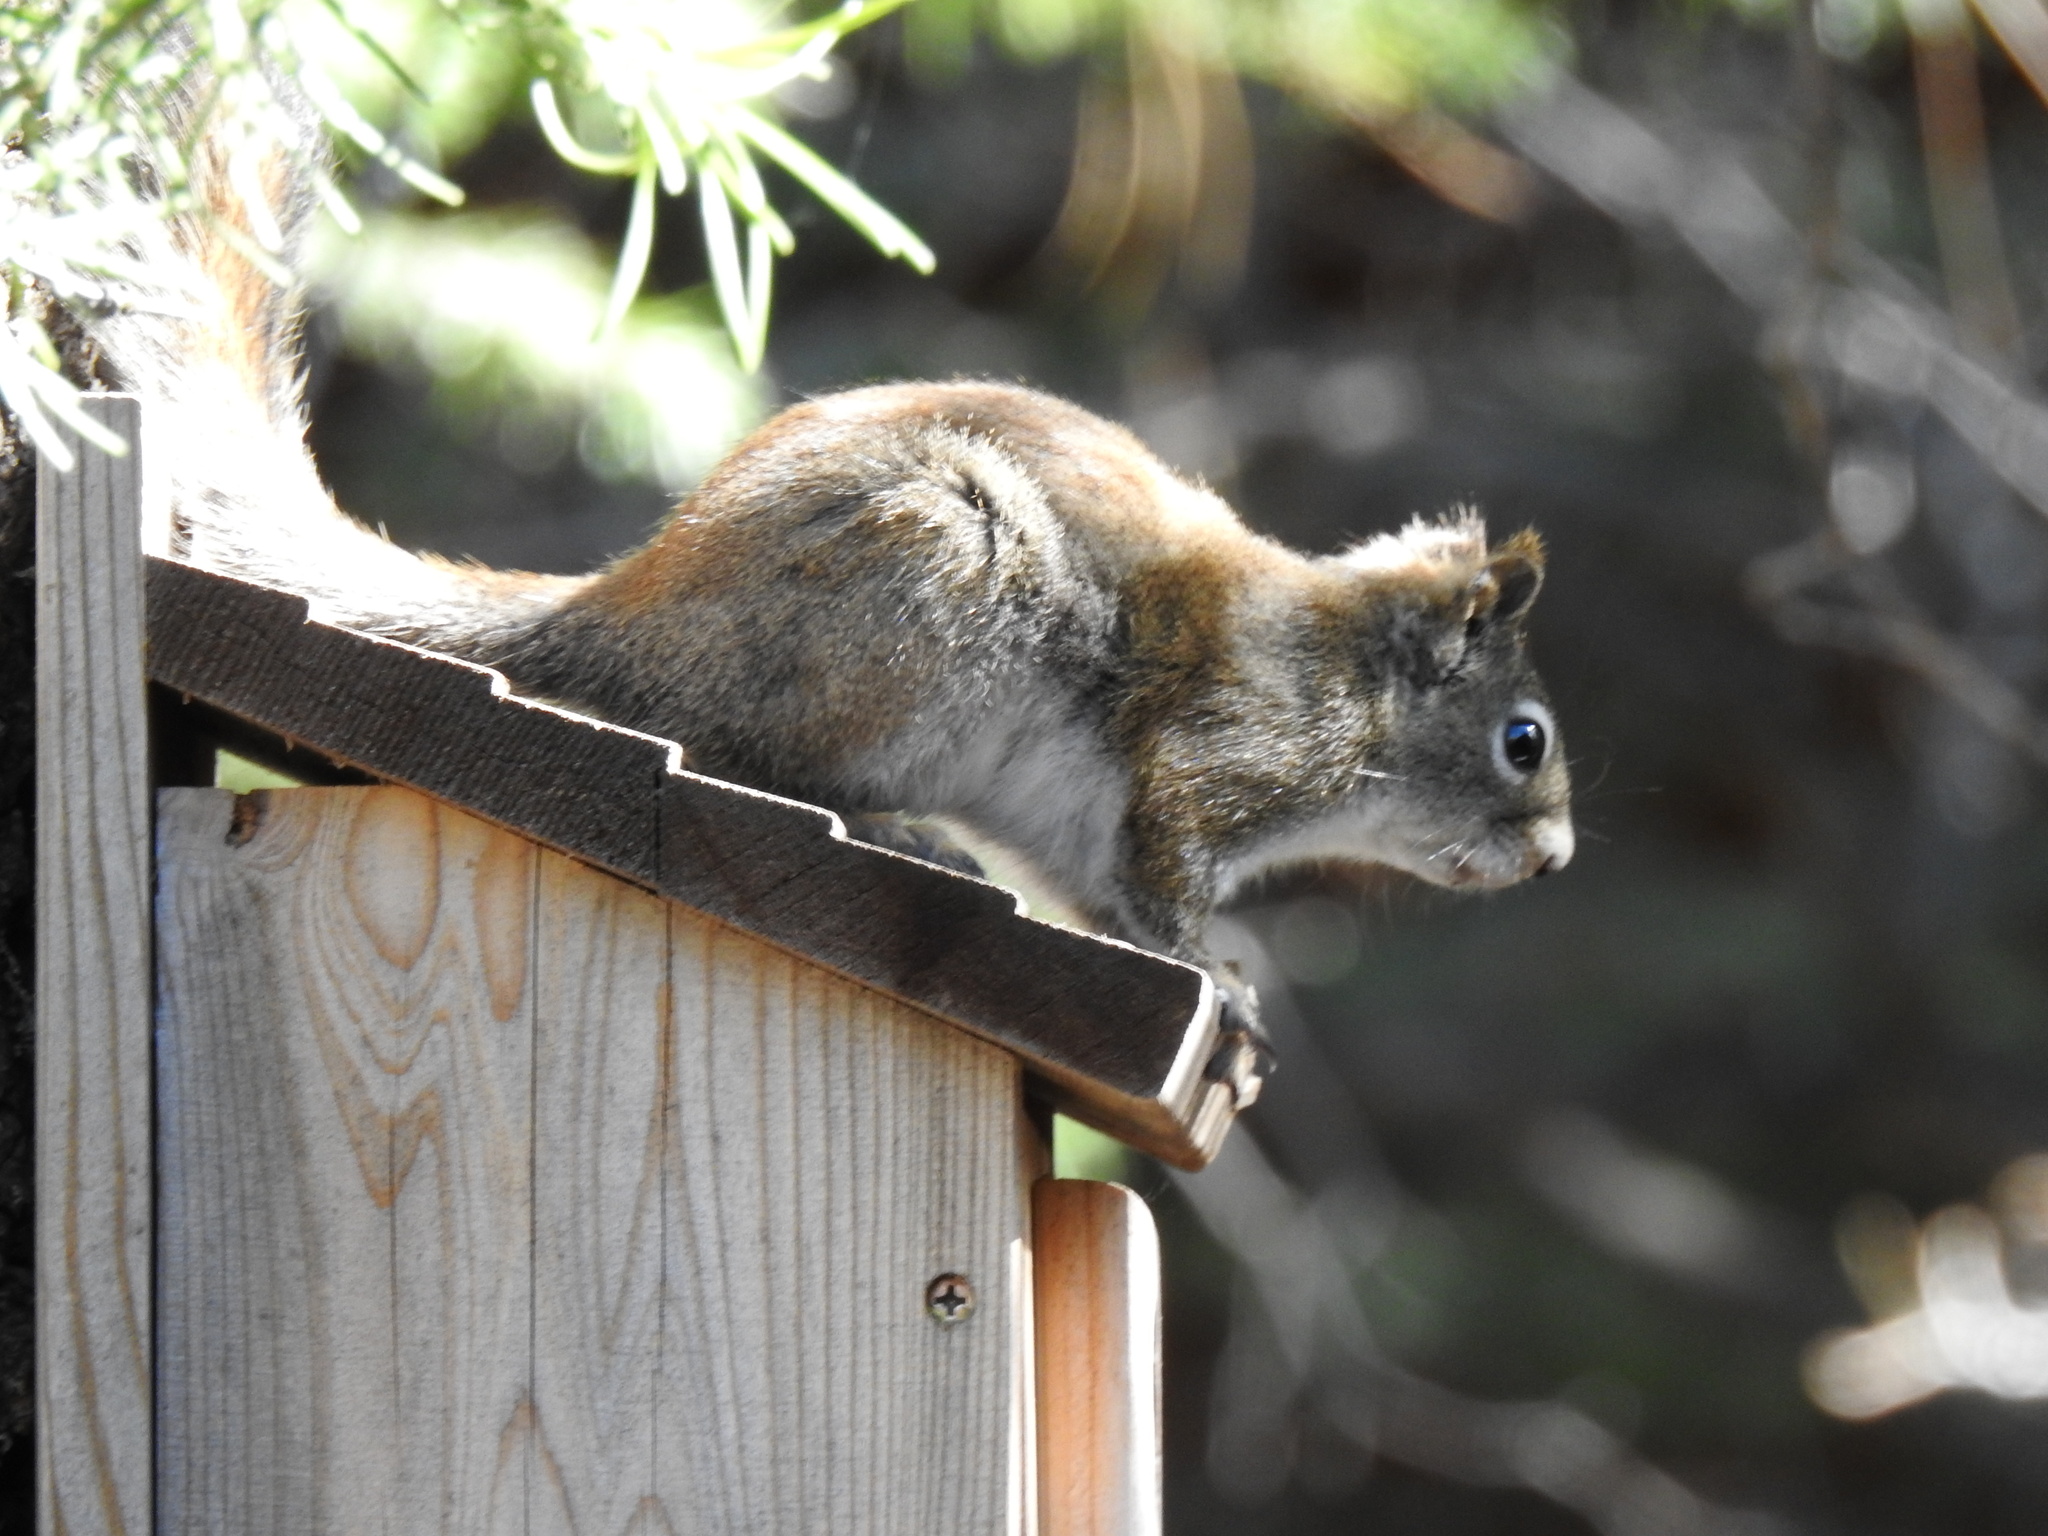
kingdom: Animalia
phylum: Chordata
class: Mammalia
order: Rodentia
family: Sciuridae
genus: Tamiasciurus
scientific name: Tamiasciurus hudsonicus
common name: Red squirrel
